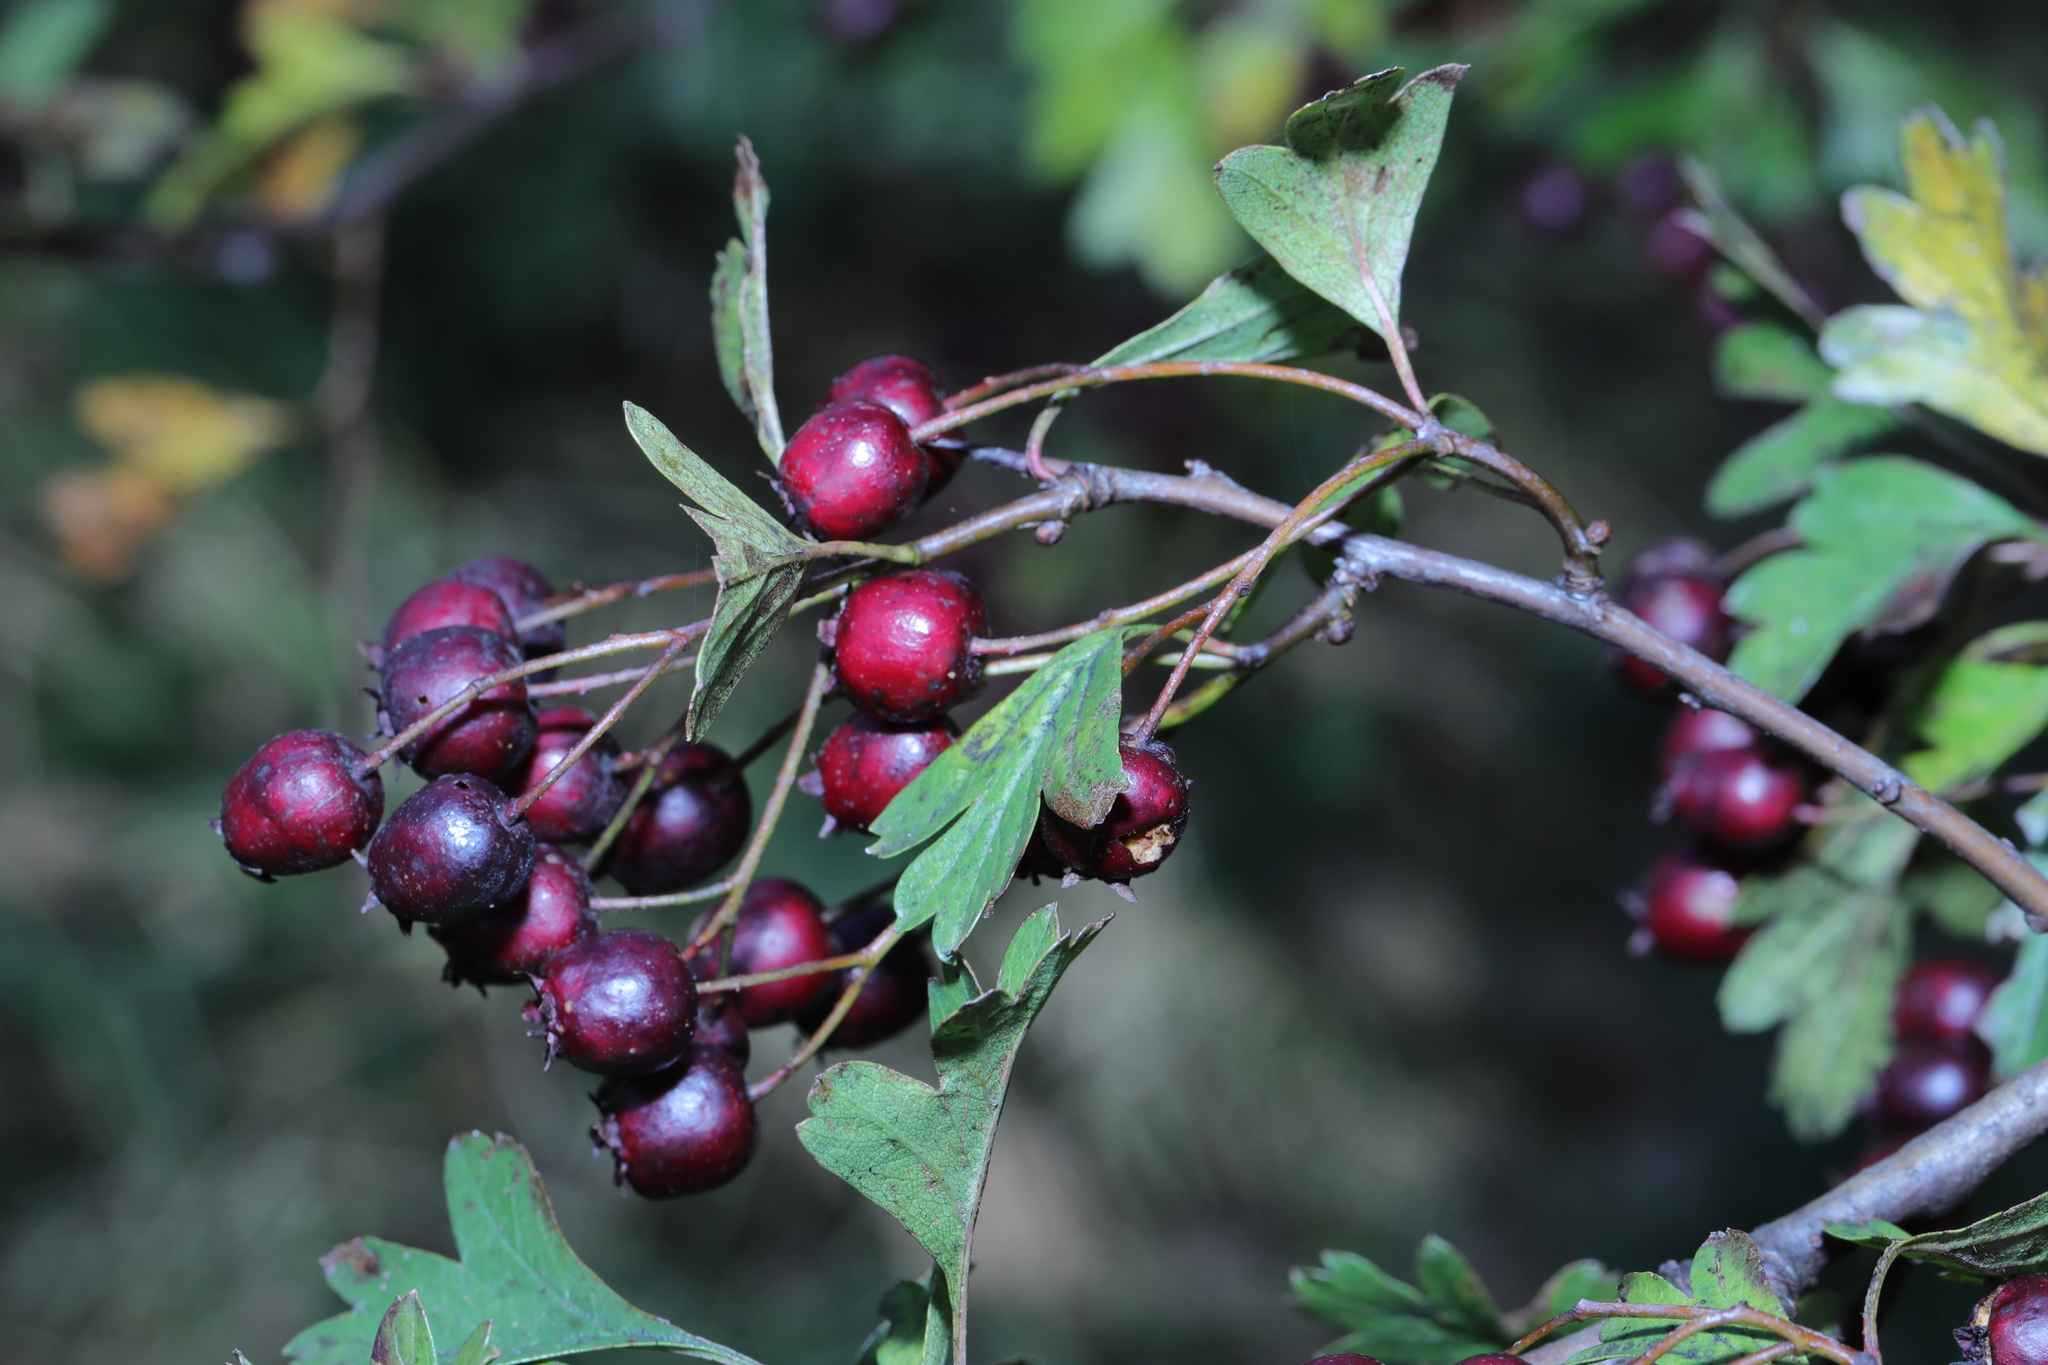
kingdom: Plantae
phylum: Tracheophyta
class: Magnoliopsida
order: Rosales
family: Rosaceae
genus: Crataegus
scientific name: Crataegus monogyna
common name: Hawthorn
